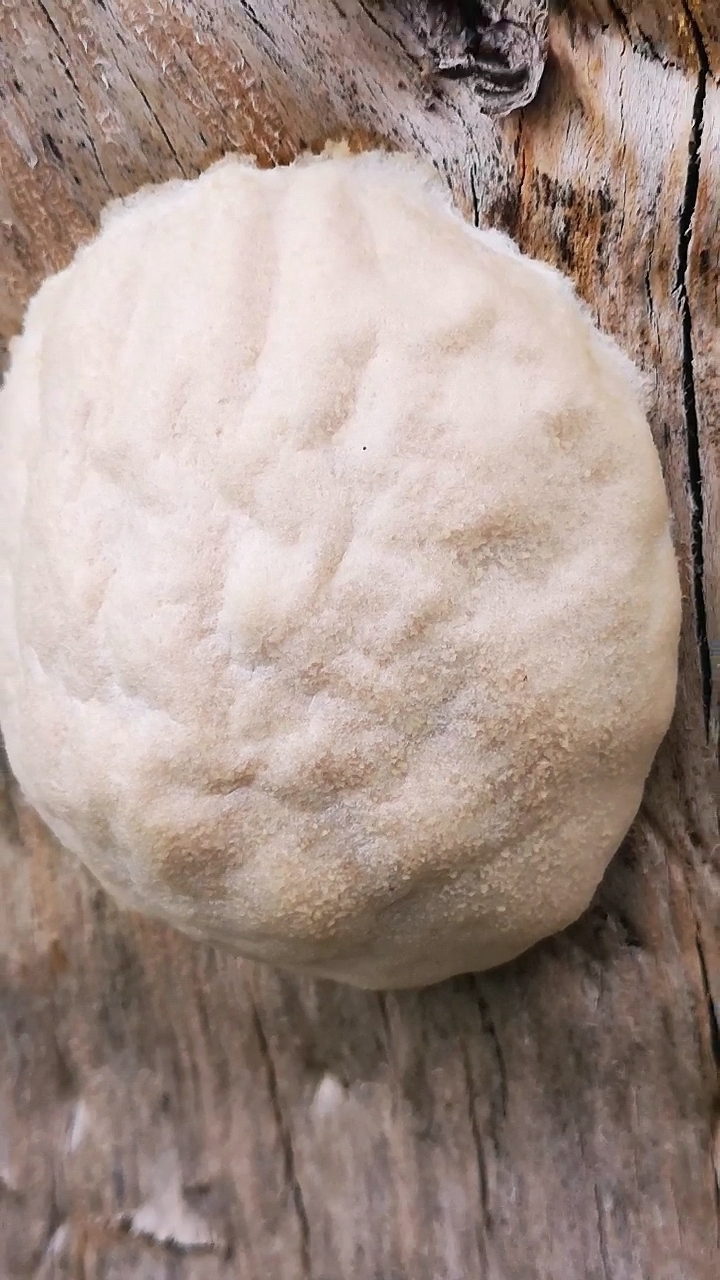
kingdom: Protozoa
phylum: Mycetozoa
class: Myxomycetes
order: Cribrariales
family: Tubiferaceae
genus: Reticularia
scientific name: Reticularia lycoperdon
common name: False puffball
